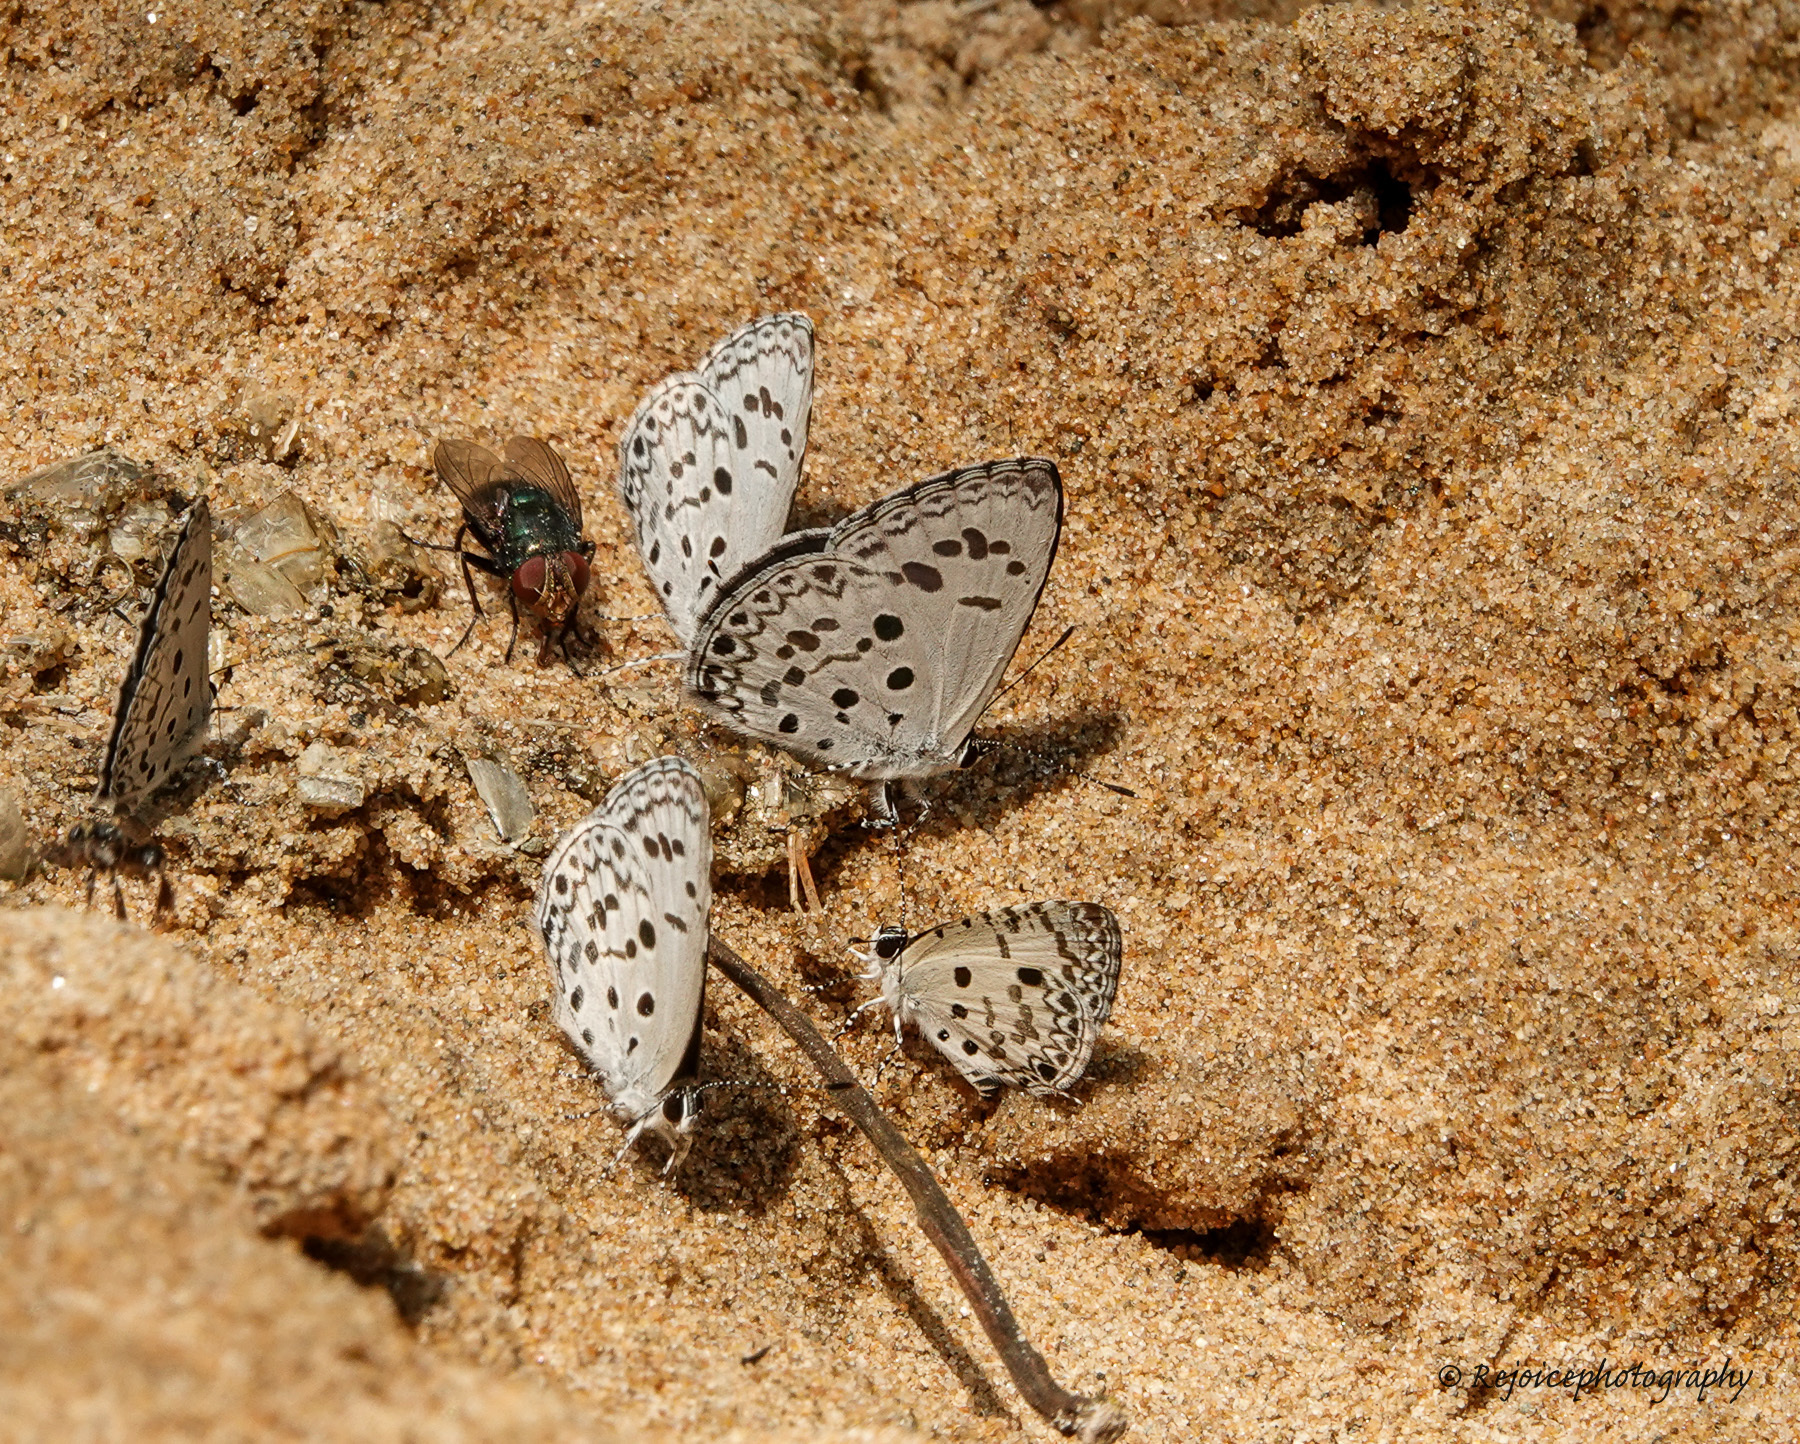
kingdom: Animalia
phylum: Arthropoda
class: Insecta
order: Lepidoptera
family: Lycaenidae
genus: Megisba
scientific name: Megisba malaya
